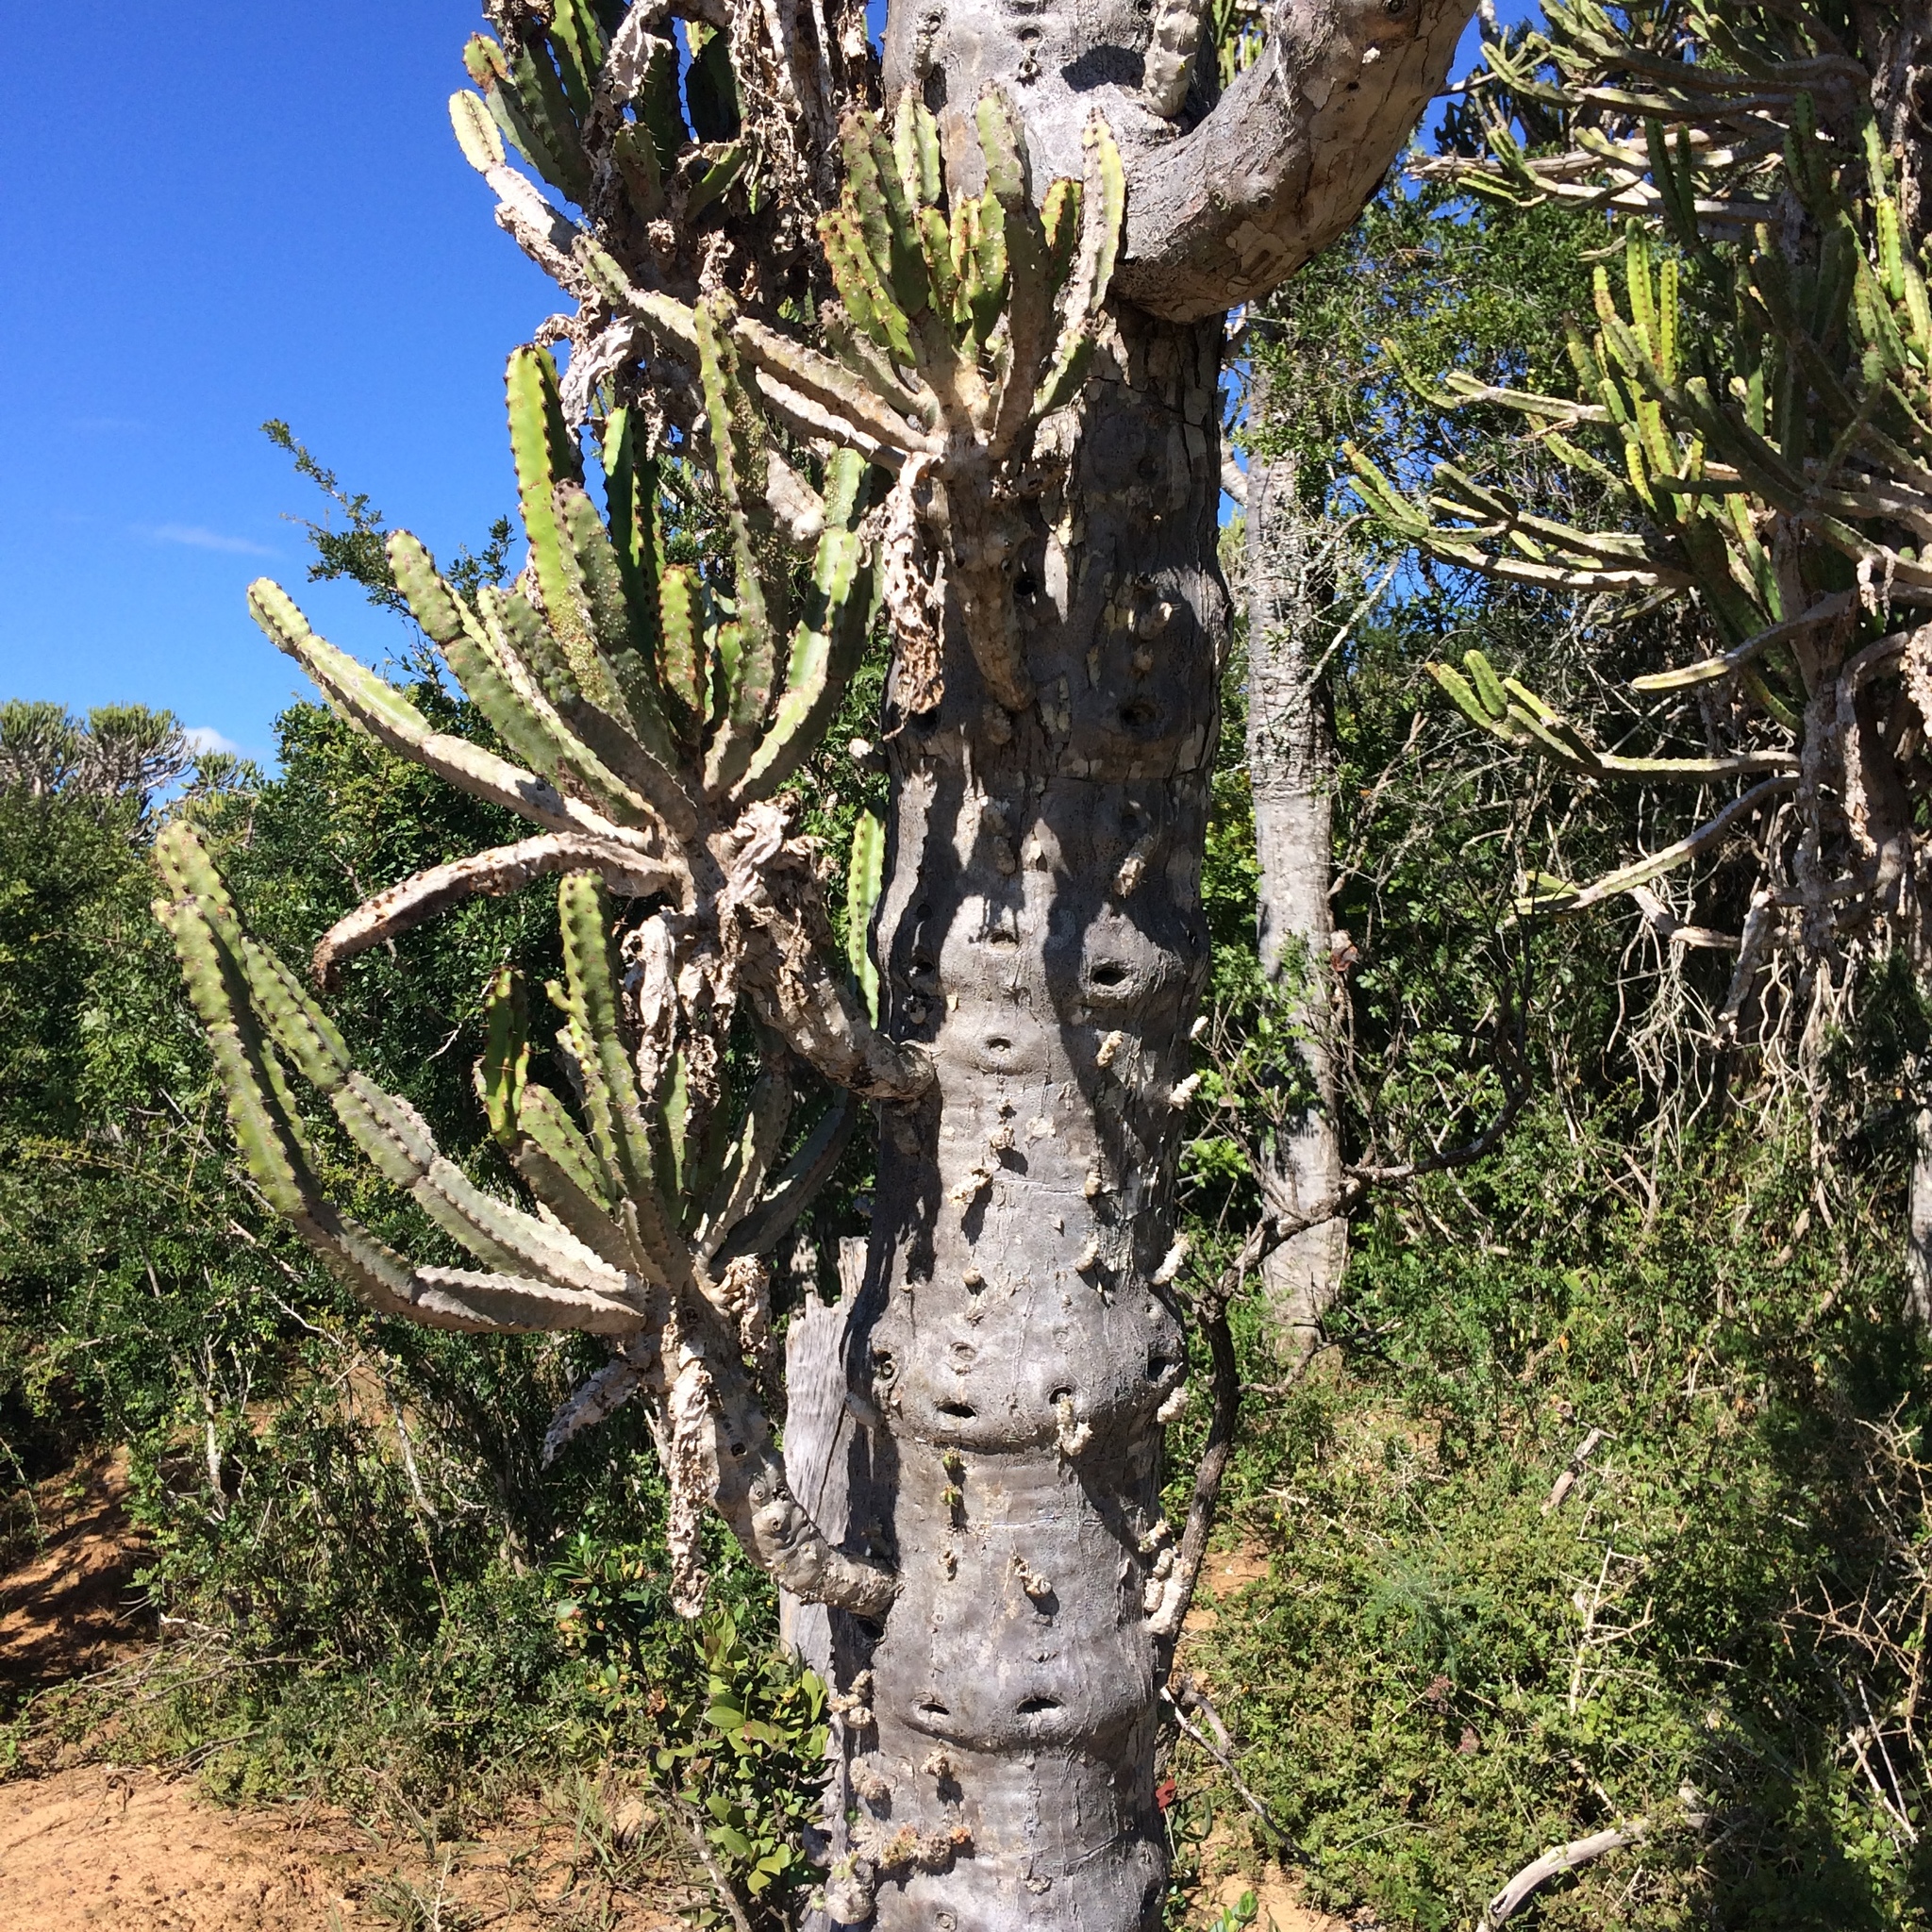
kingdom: Plantae
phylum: Tracheophyta
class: Magnoliopsida
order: Malpighiales
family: Euphorbiaceae
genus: Euphorbia
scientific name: Euphorbia tetragona
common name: Honey euphorbia
